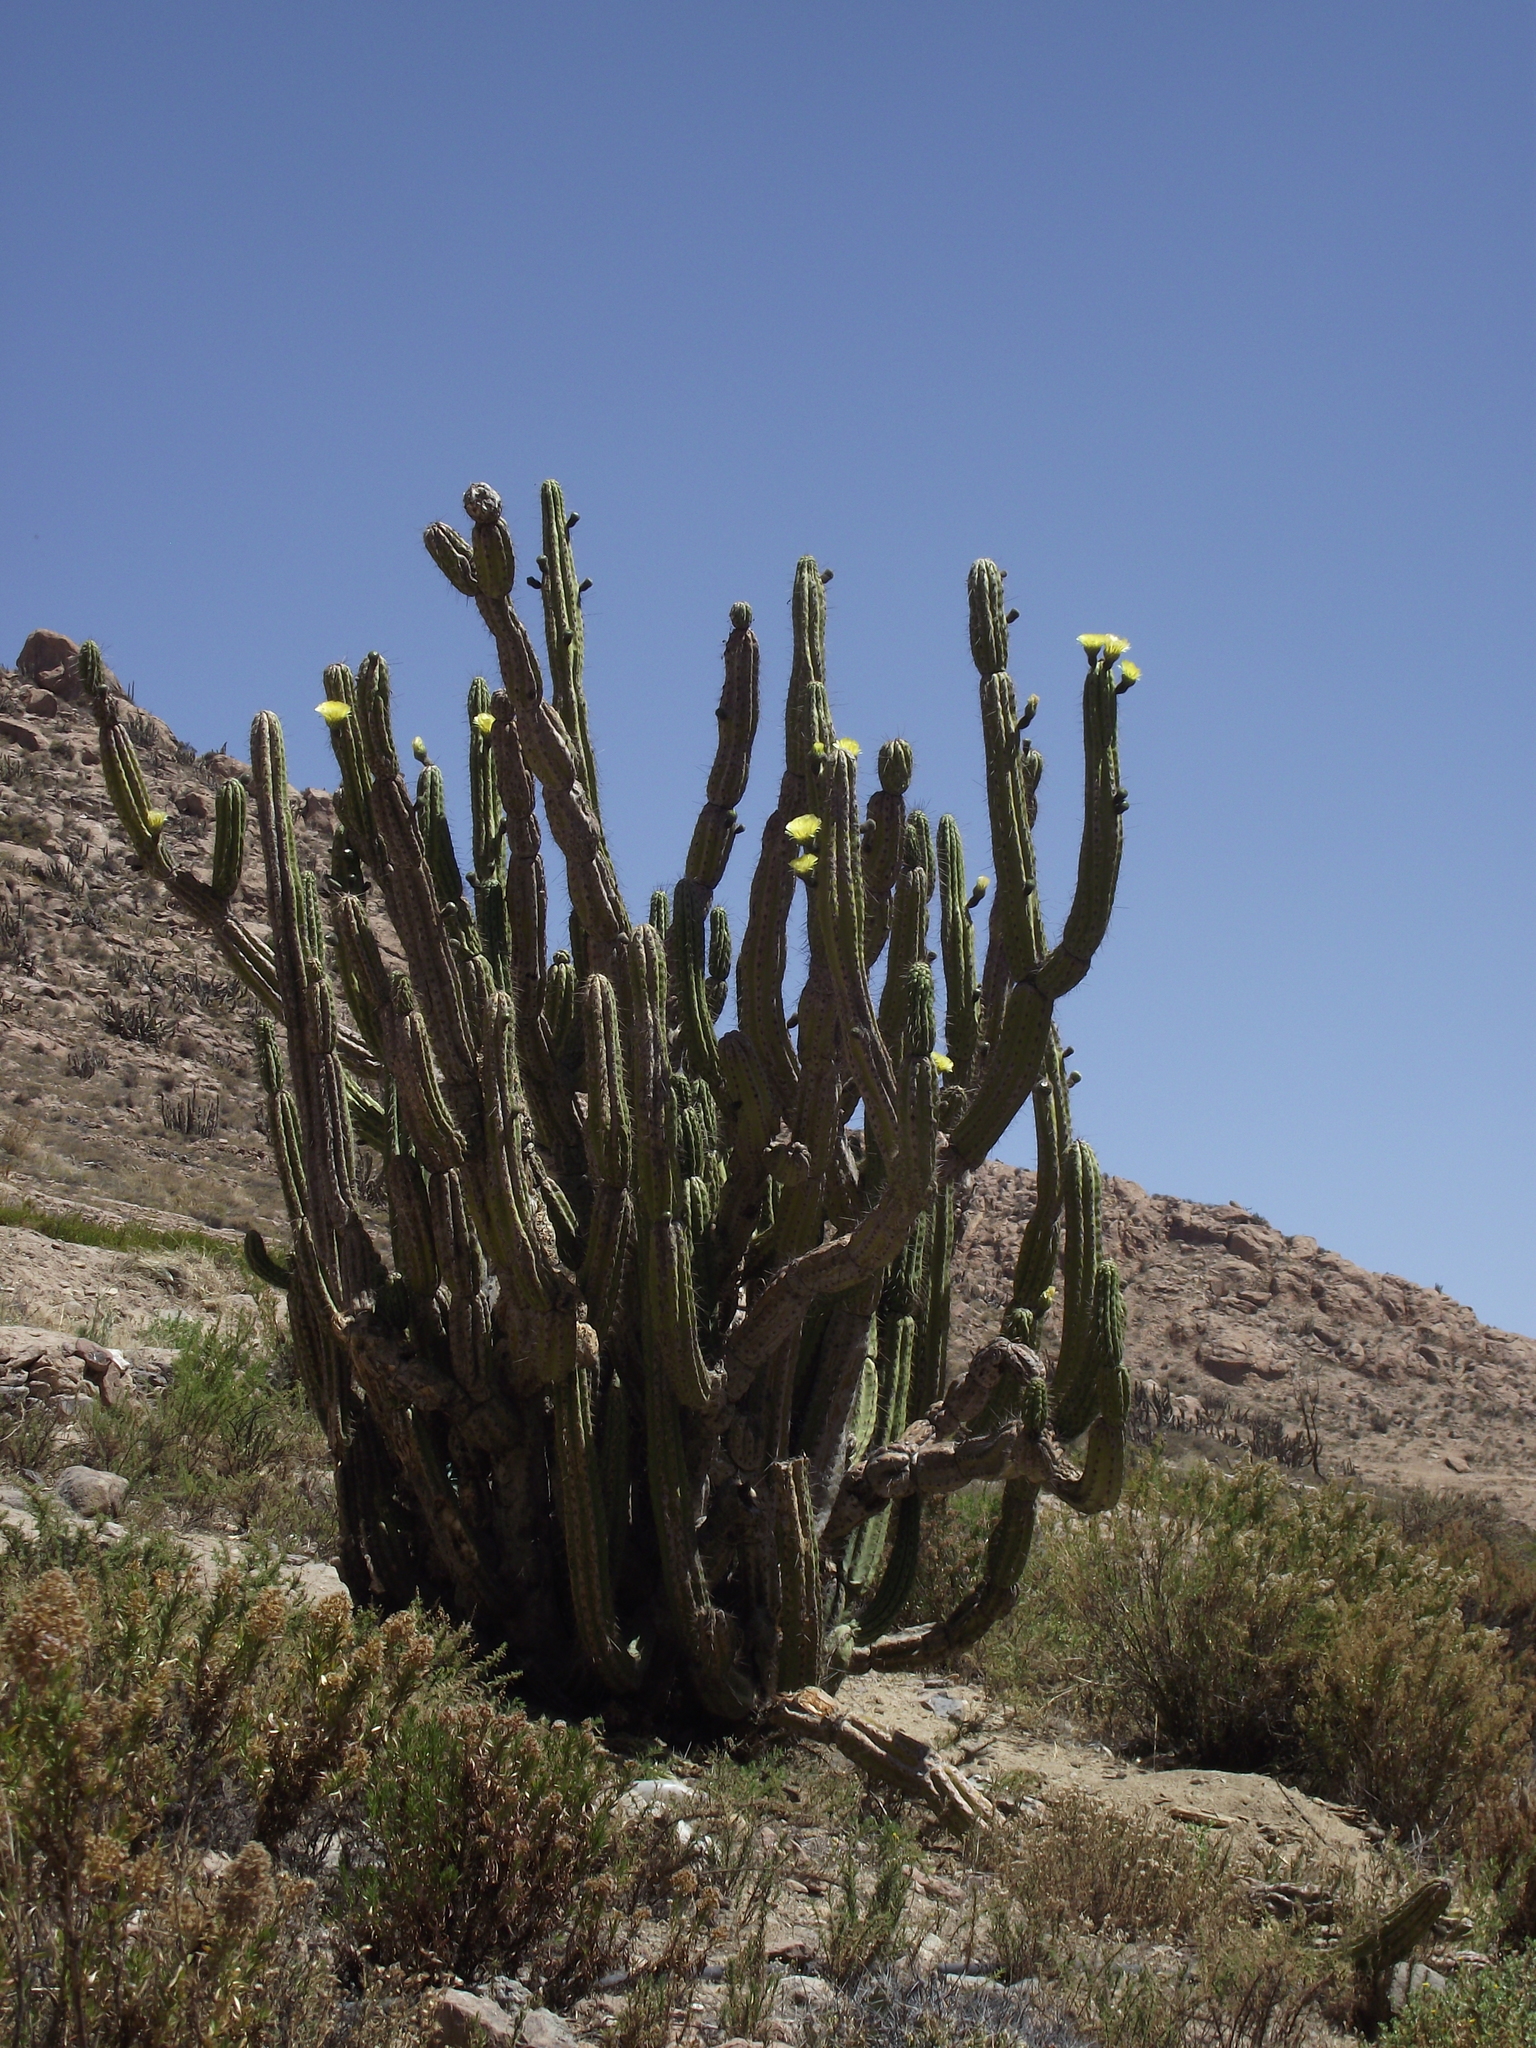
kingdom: Plantae
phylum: Tracheophyta
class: Magnoliopsida
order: Caryophyllales
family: Cactaceae
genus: Corryocactus
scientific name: Corryocactus brevistylus
